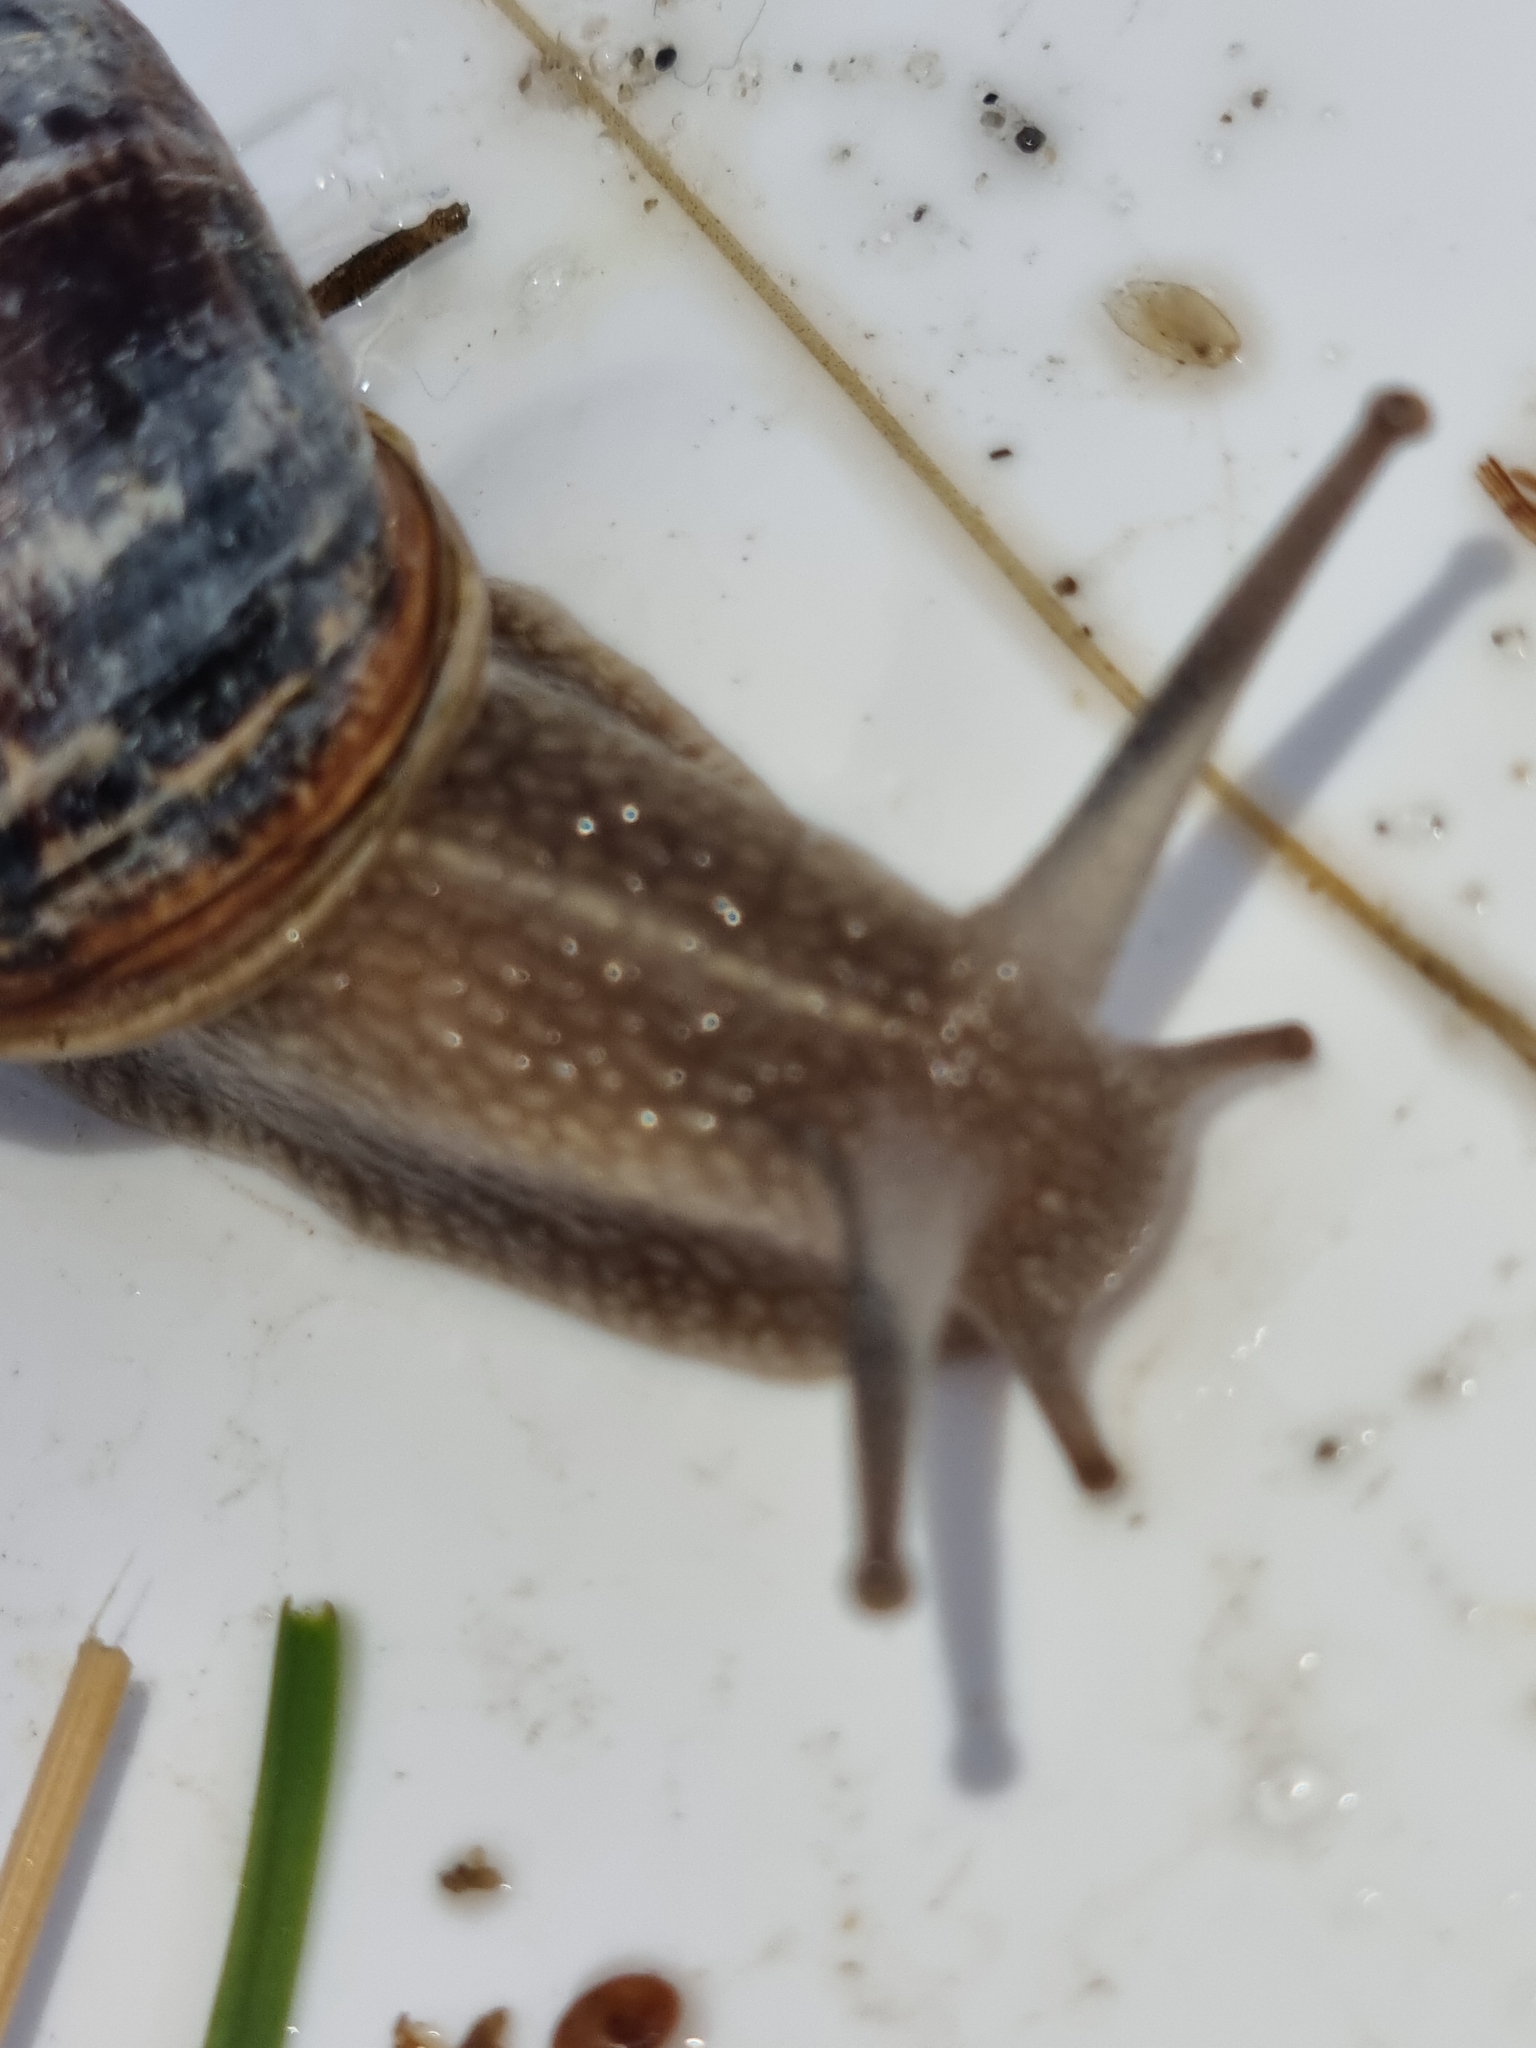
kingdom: Animalia
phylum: Mollusca
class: Gastropoda
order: Stylommatophora
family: Helicidae
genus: Cornu
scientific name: Cornu aspersum
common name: Brown garden snail
